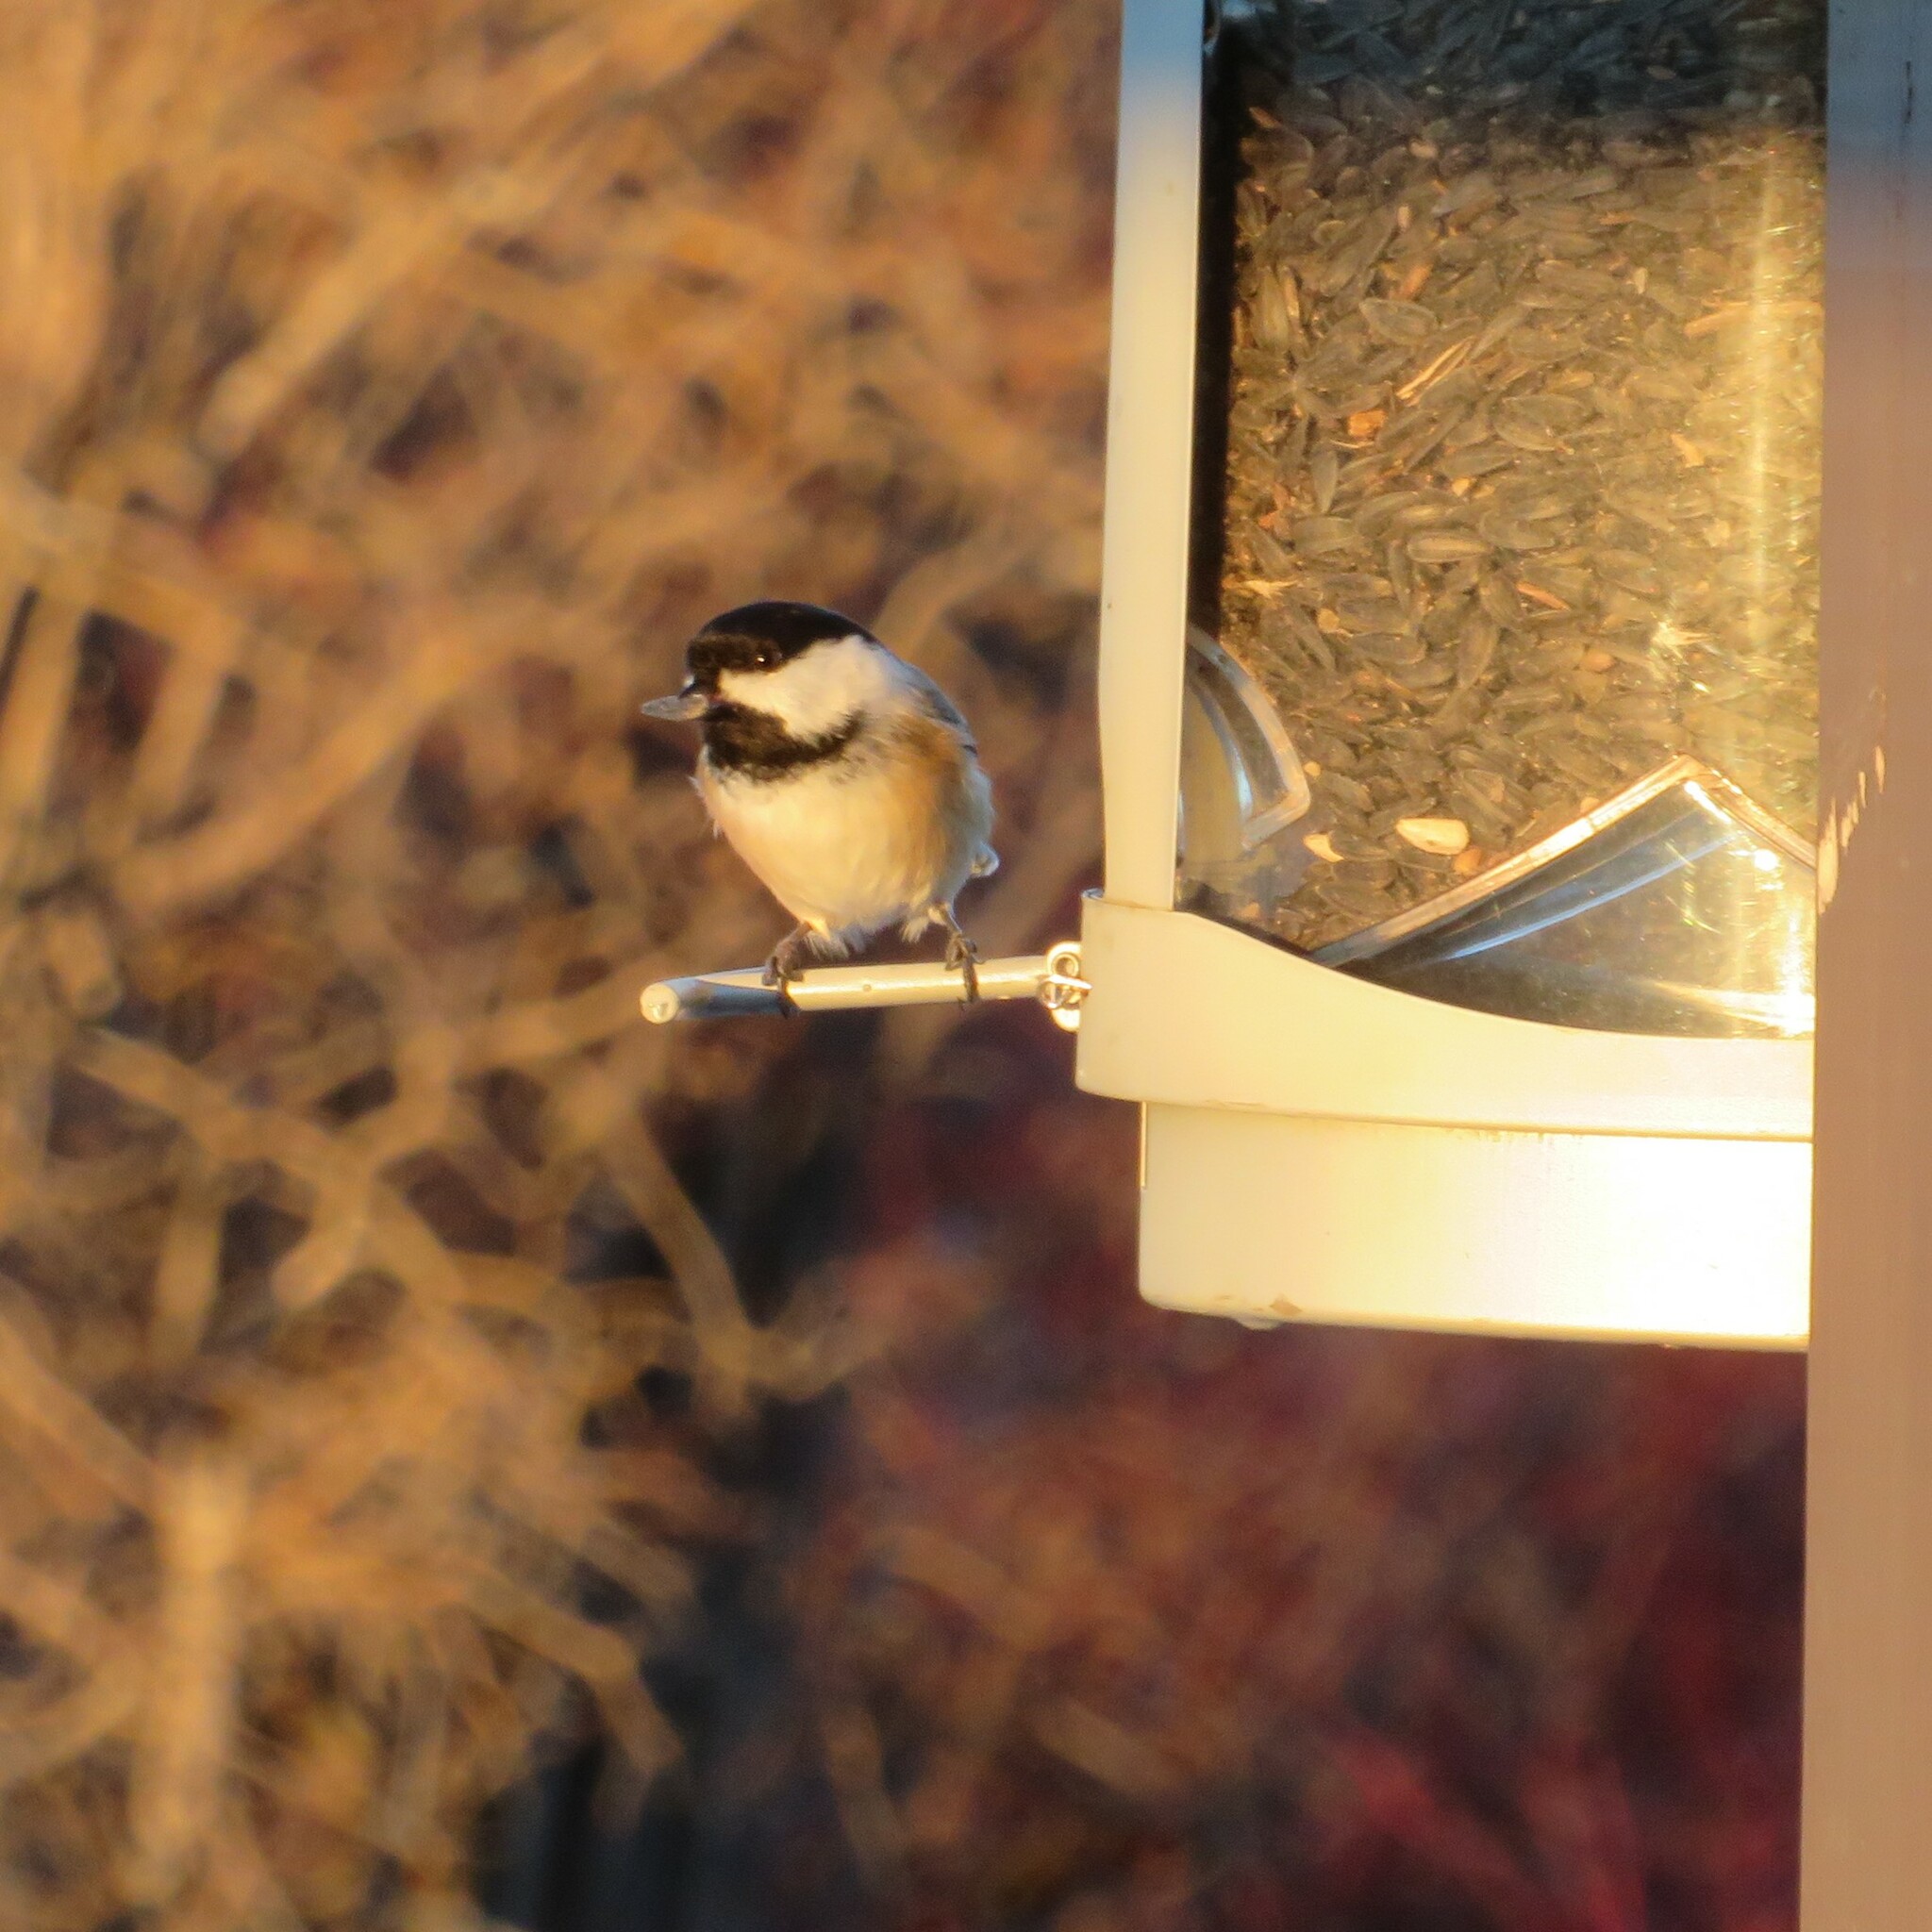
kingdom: Animalia
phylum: Chordata
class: Aves
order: Passeriformes
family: Paridae
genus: Poecile
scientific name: Poecile atricapillus
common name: Black-capped chickadee
